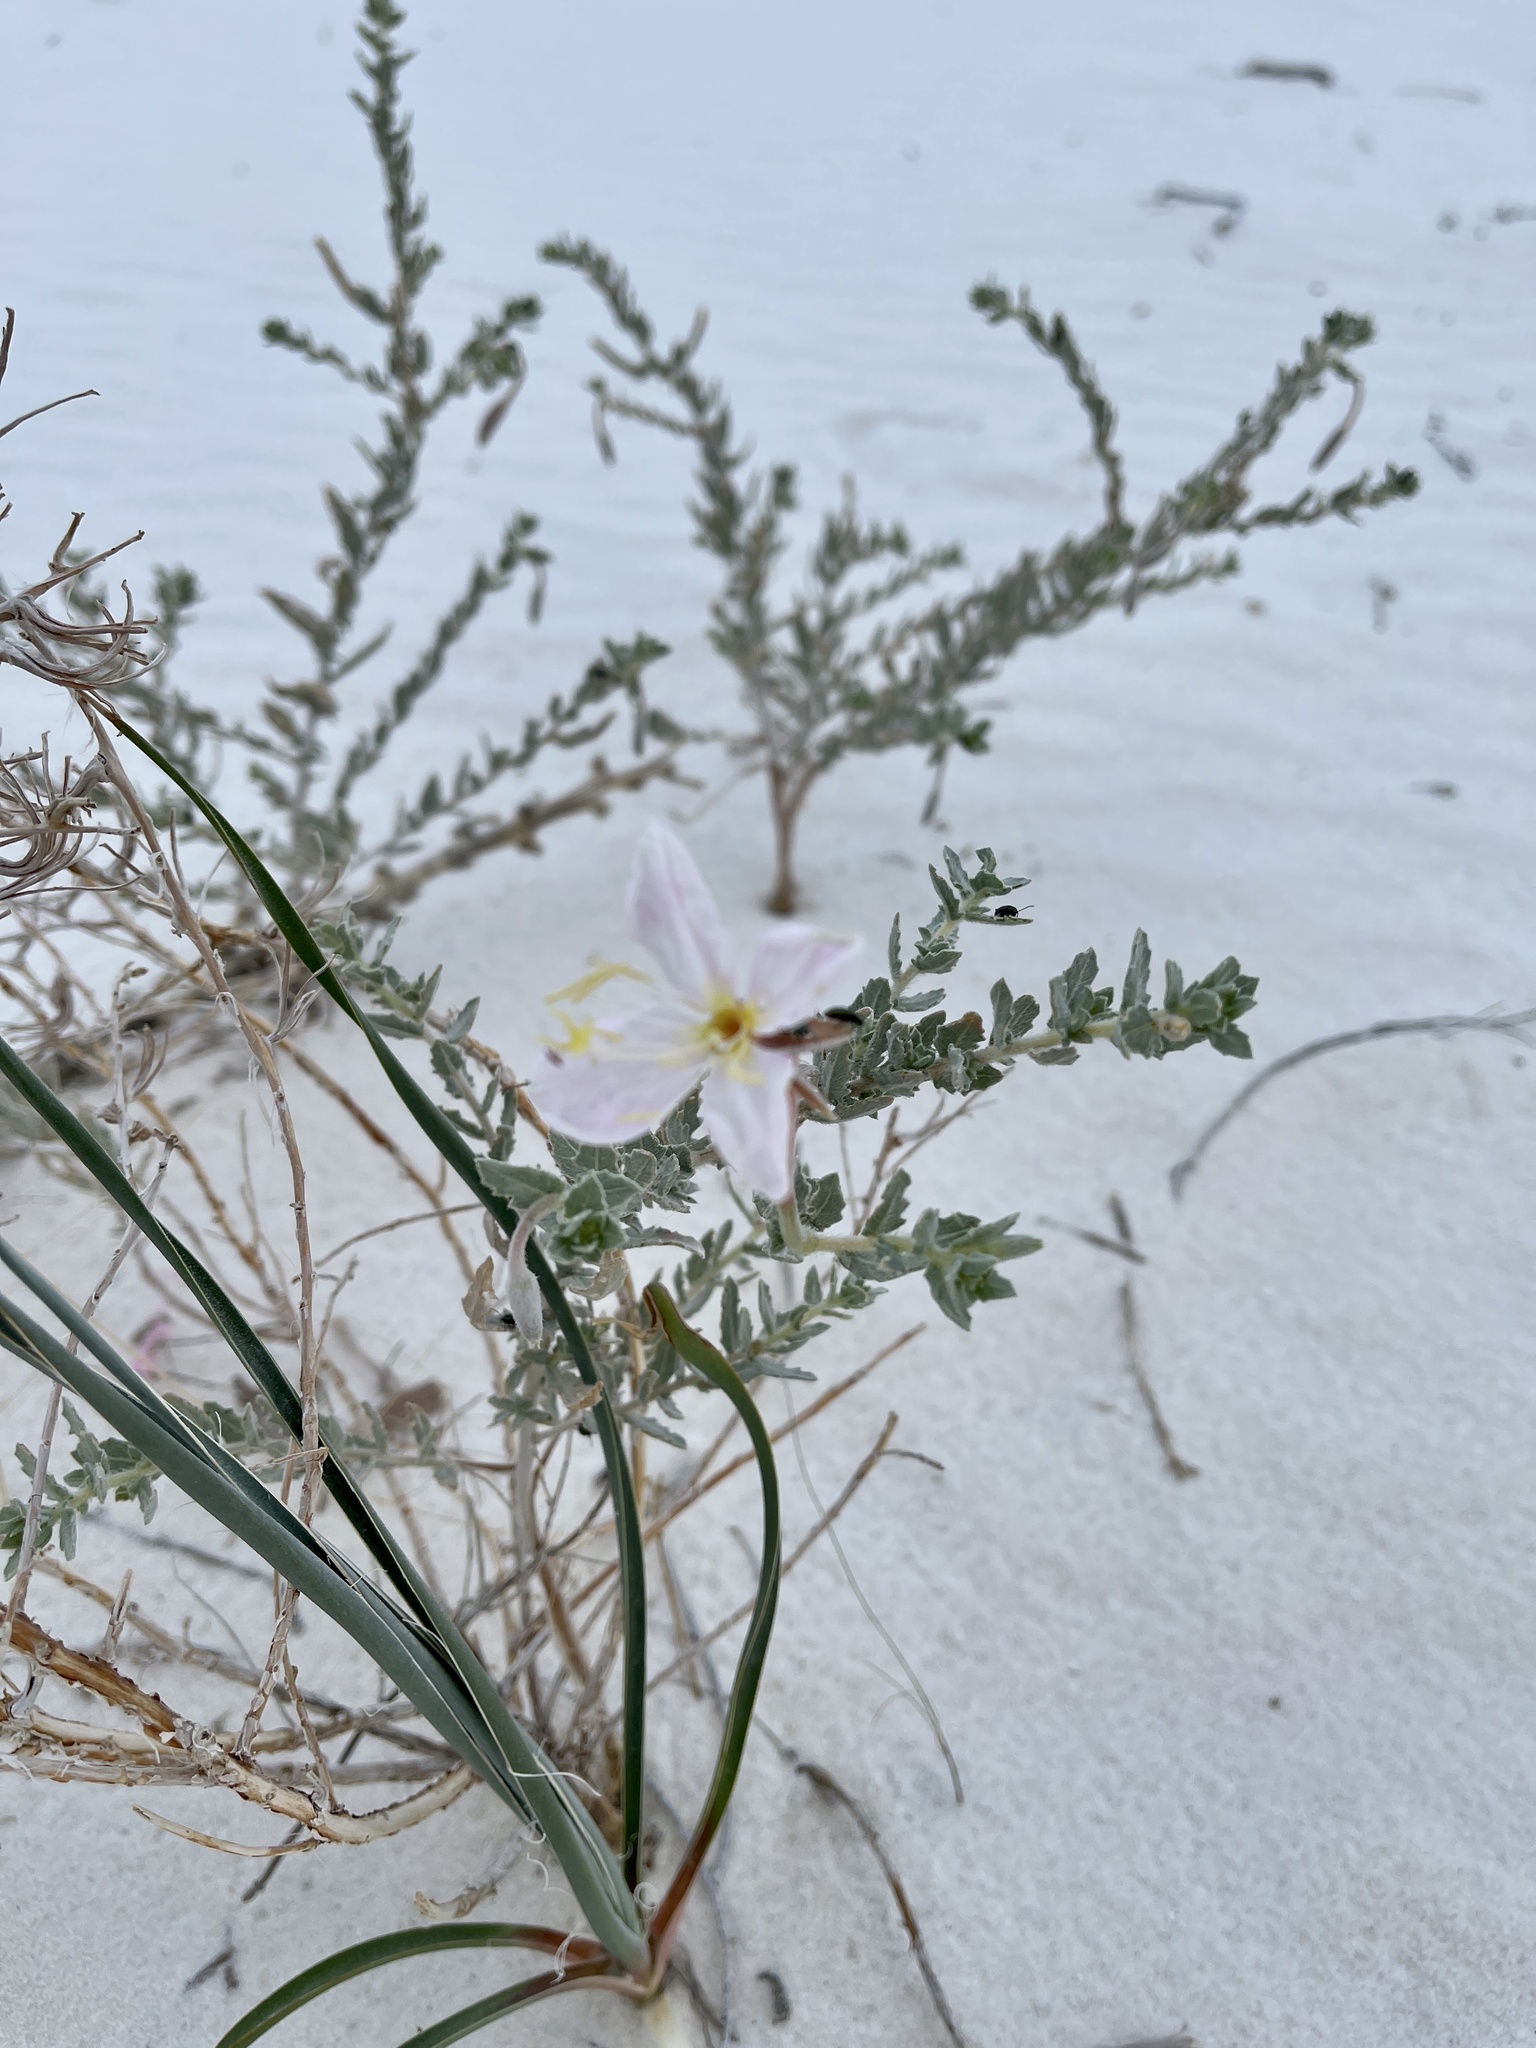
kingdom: Plantae
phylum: Tracheophyta
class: Magnoliopsida
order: Myrtales
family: Onagraceae
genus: Oenothera
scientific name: Oenothera pallida
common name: Pale evening-primrose
